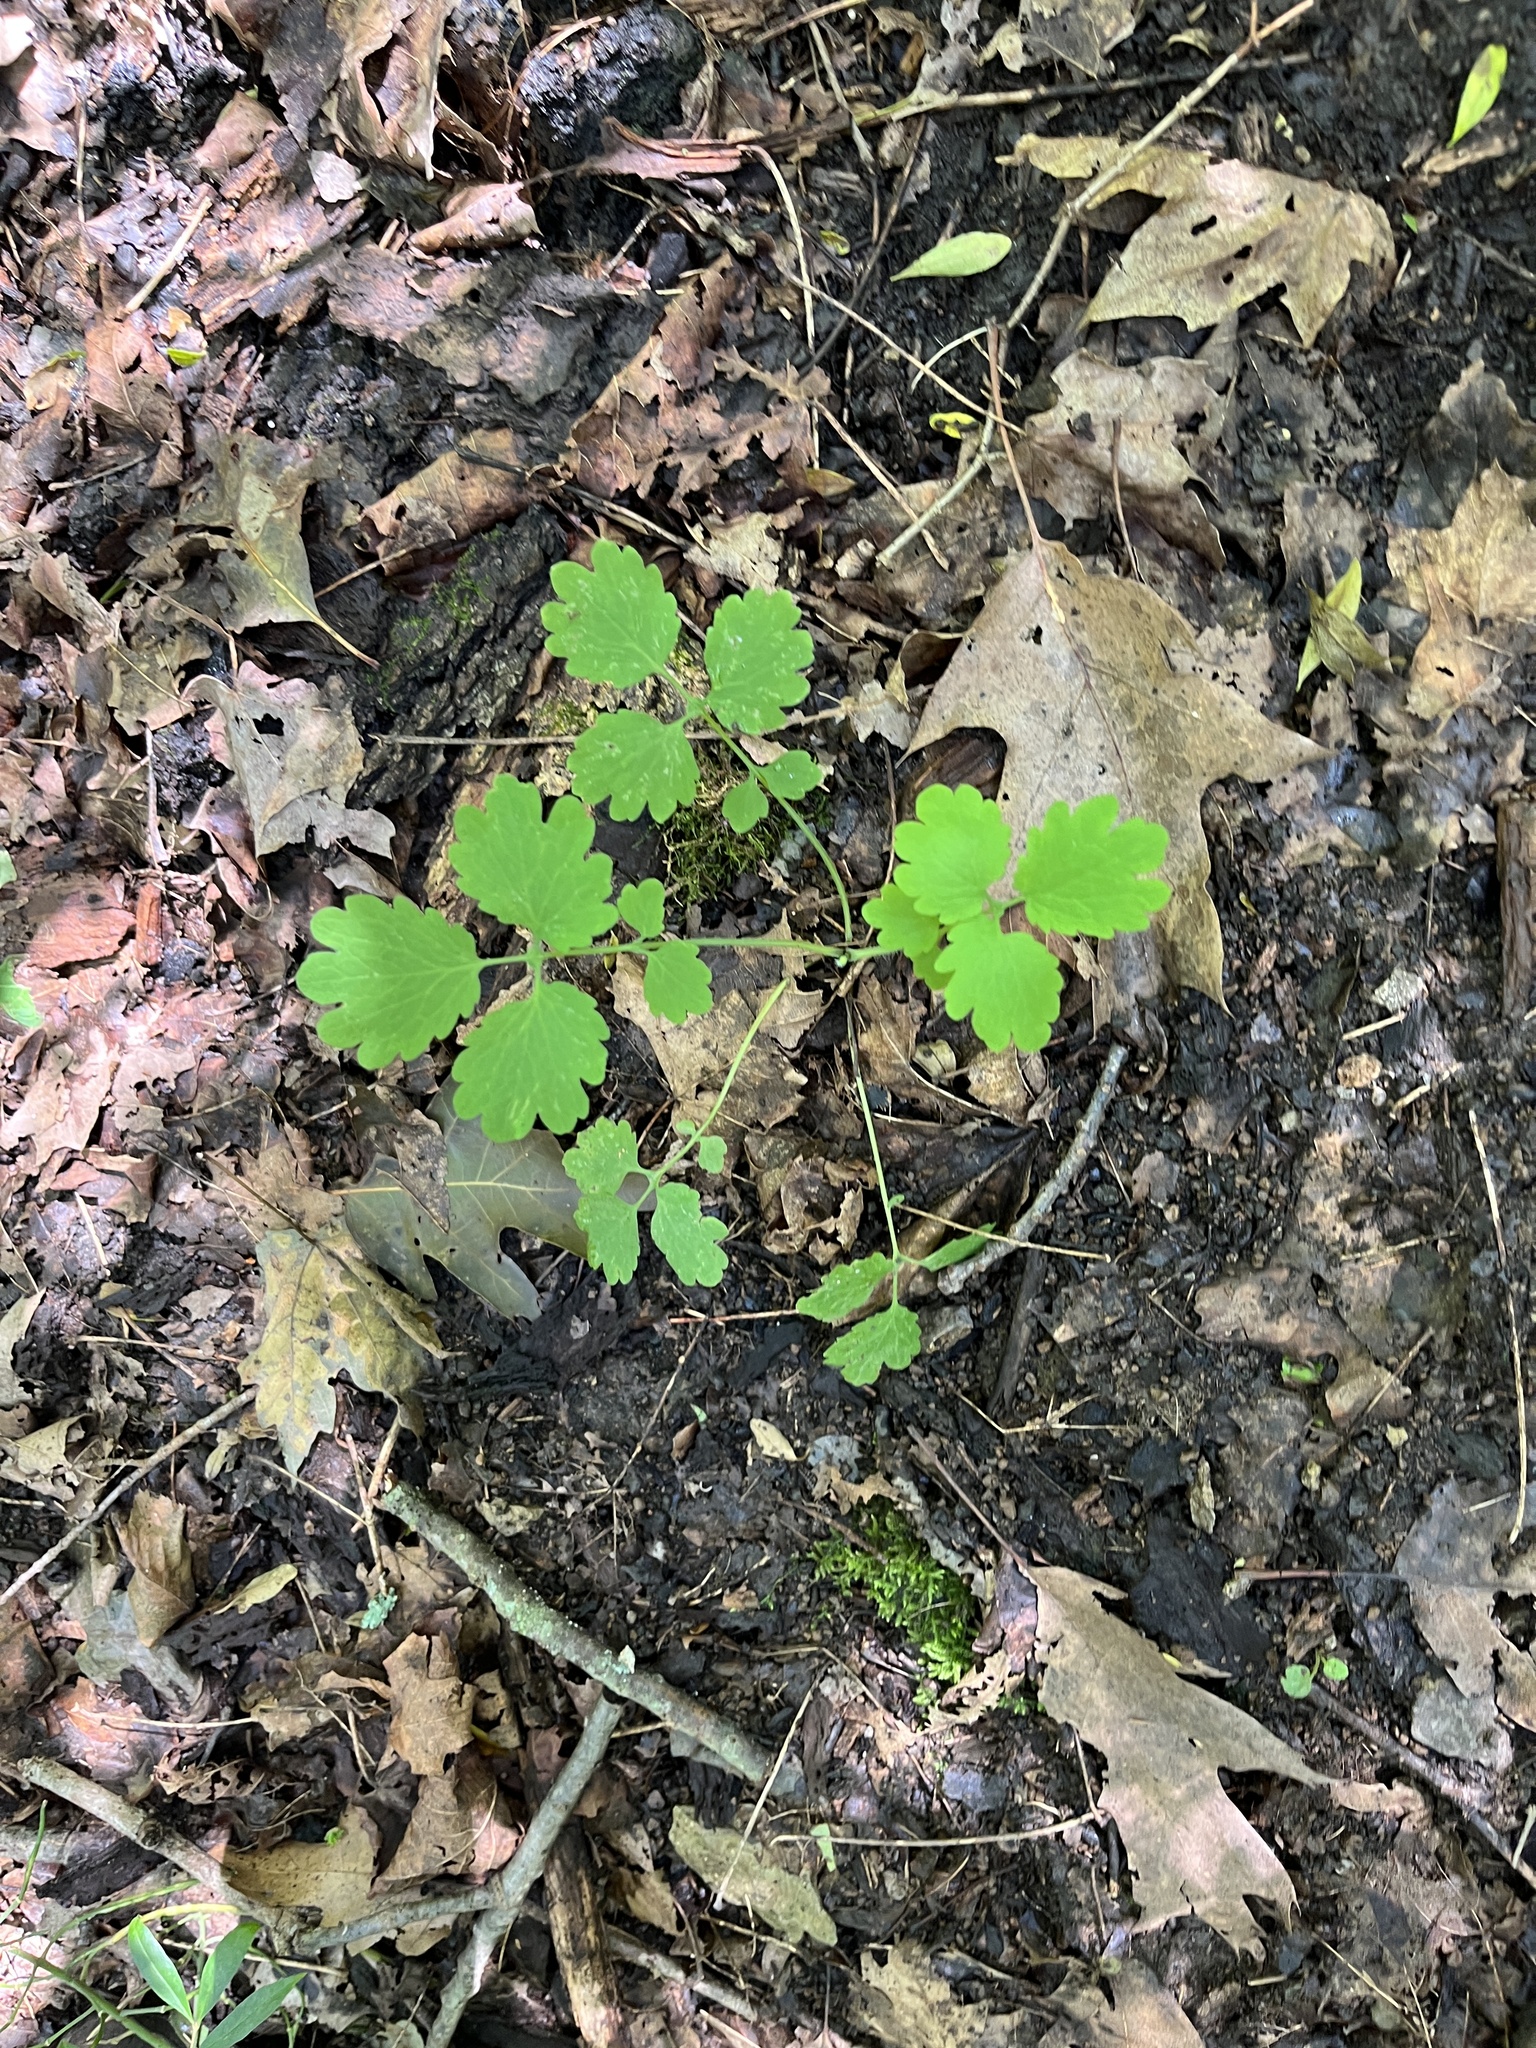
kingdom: Plantae
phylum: Tracheophyta
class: Magnoliopsida
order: Ranunculales
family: Papaveraceae
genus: Chelidonium
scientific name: Chelidonium majus
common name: Greater celandine
